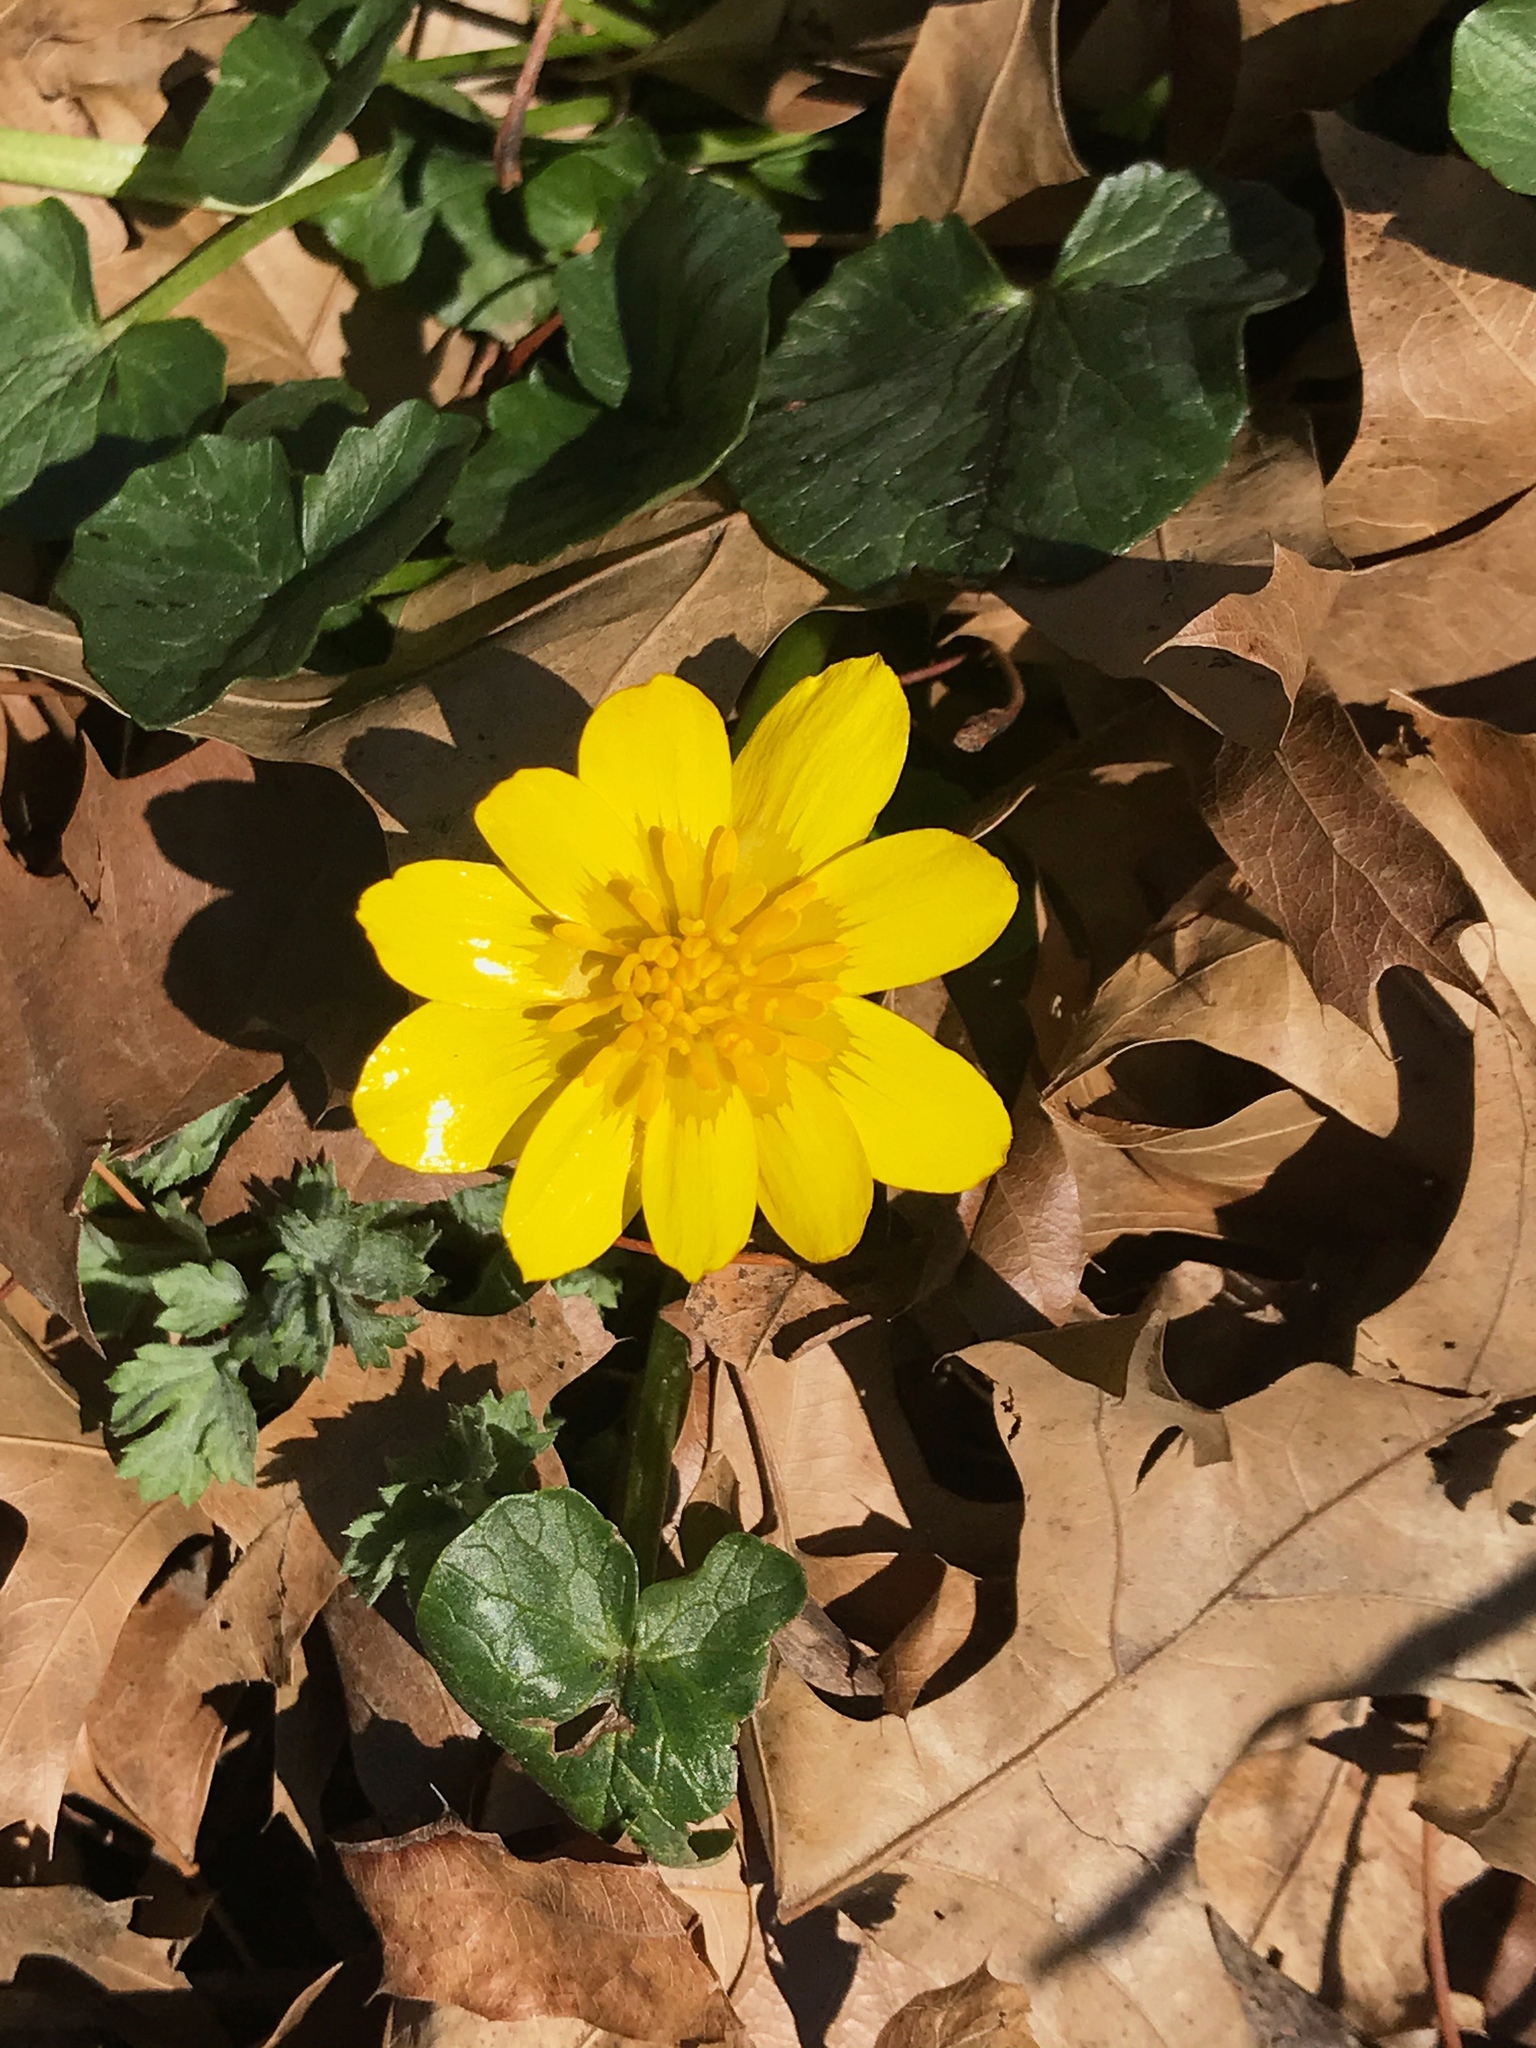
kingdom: Plantae
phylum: Tracheophyta
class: Magnoliopsida
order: Ranunculales
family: Ranunculaceae
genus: Ficaria
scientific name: Ficaria verna
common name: Lesser celandine
